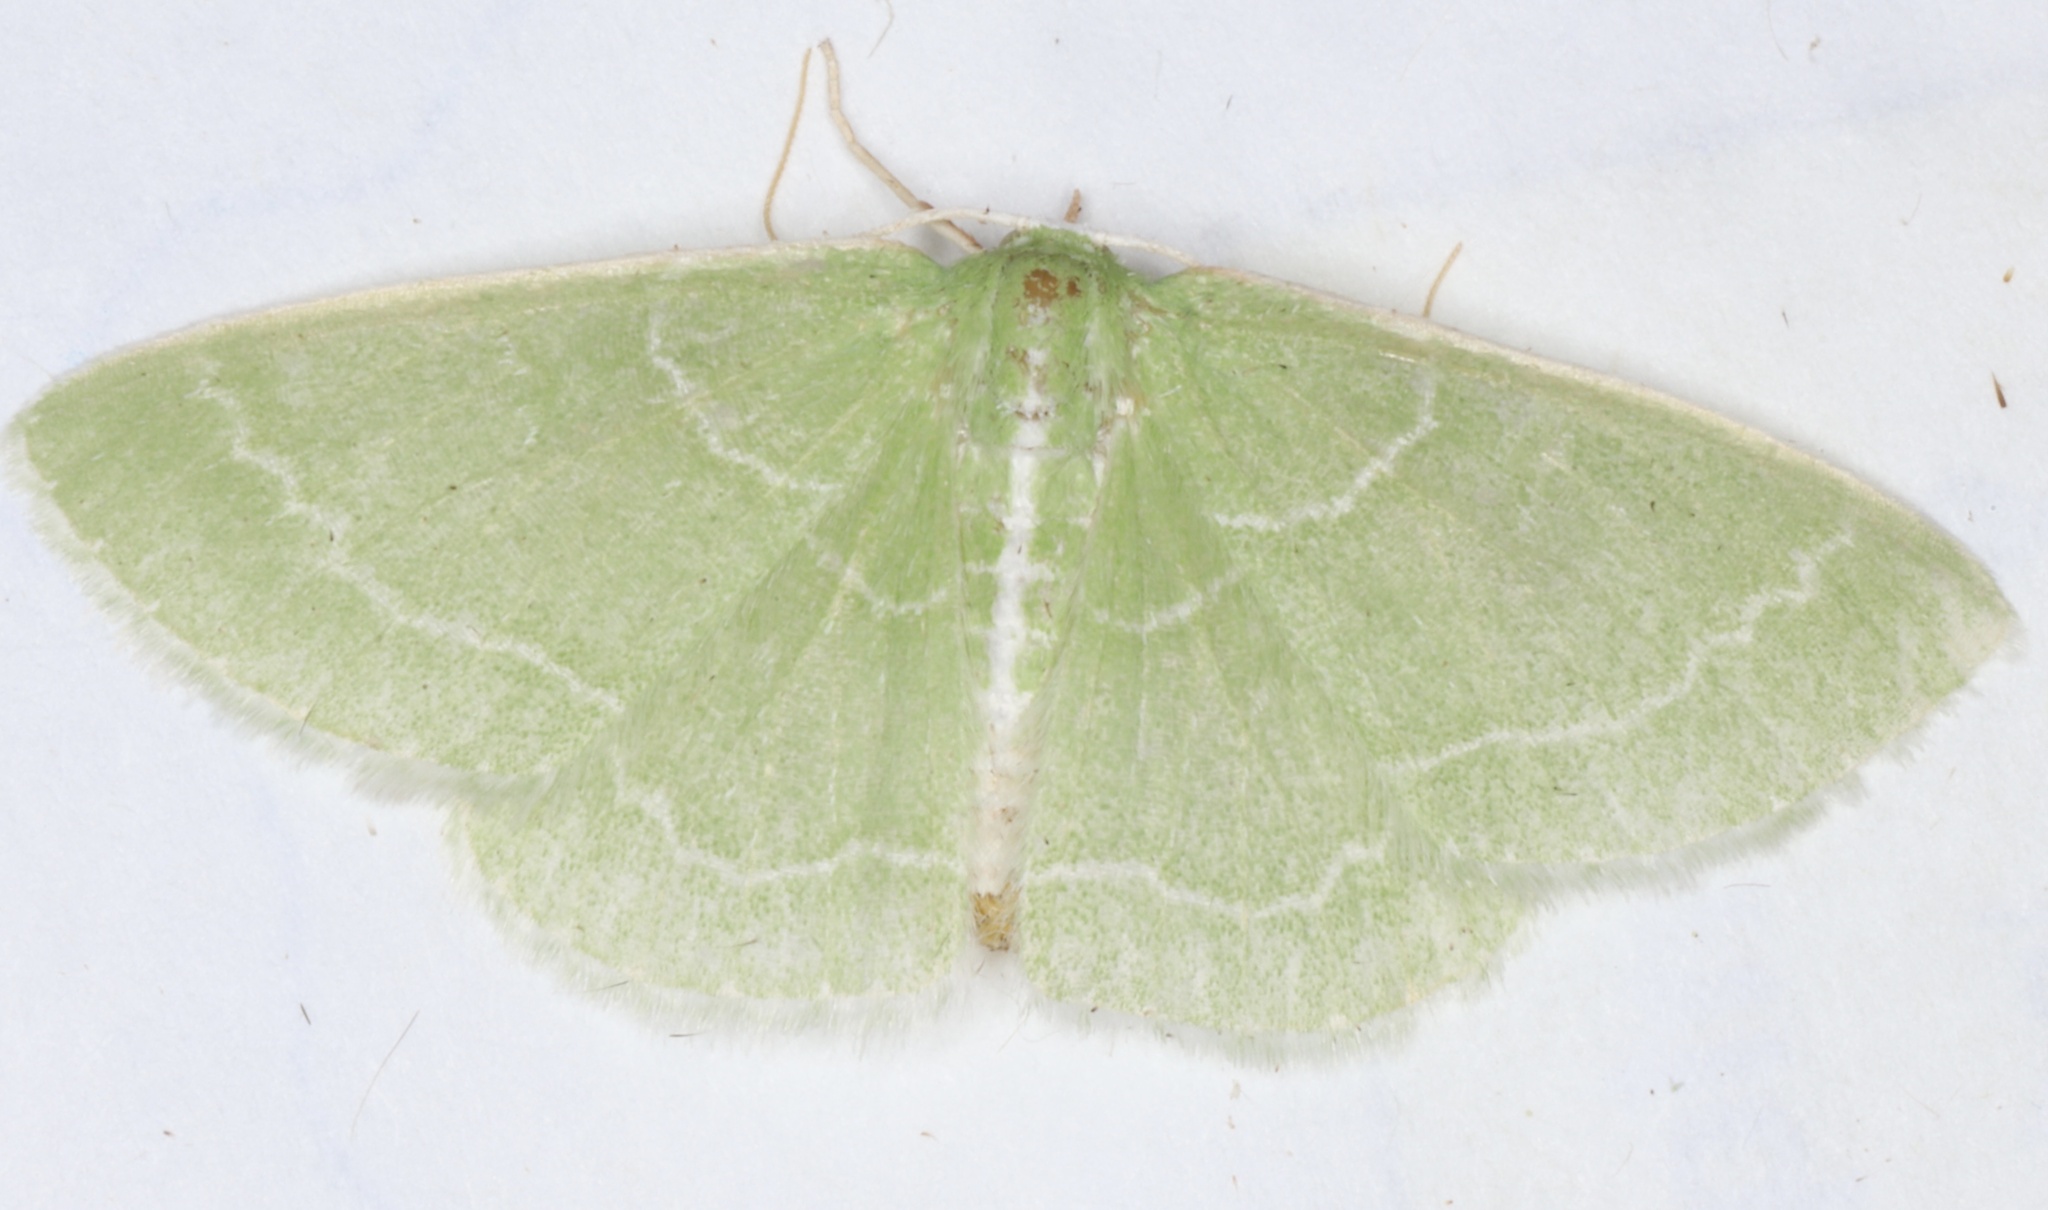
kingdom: Animalia
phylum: Arthropoda
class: Insecta
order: Lepidoptera
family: Geometridae
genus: Synchlora
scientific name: Synchlora aerata
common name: Wavy-lined emerald
